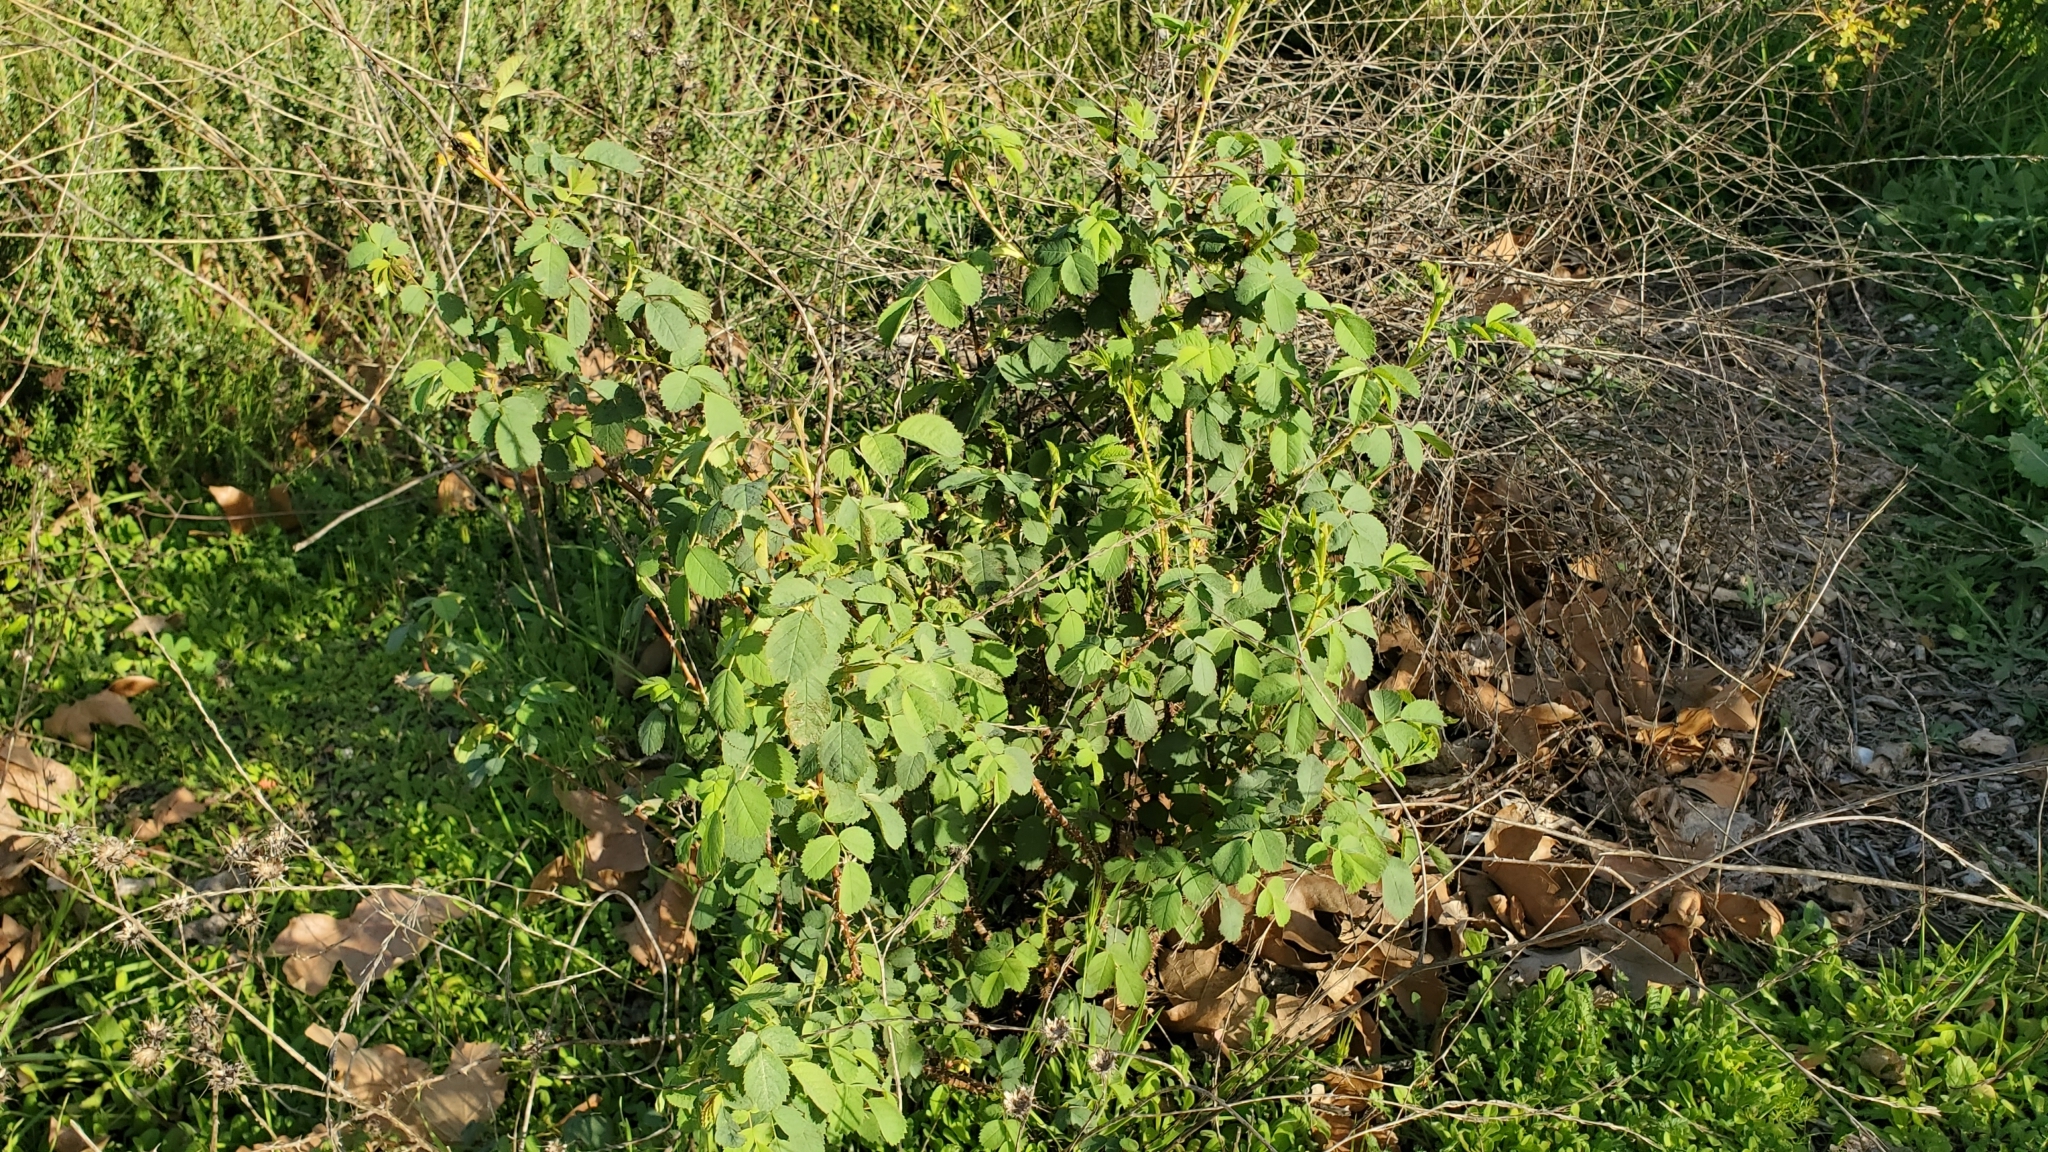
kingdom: Plantae
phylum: Tracheophyta
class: Magnoliopsida
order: Rosales
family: Rosaceae
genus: Rosa
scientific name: Rosa californica
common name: California rose
